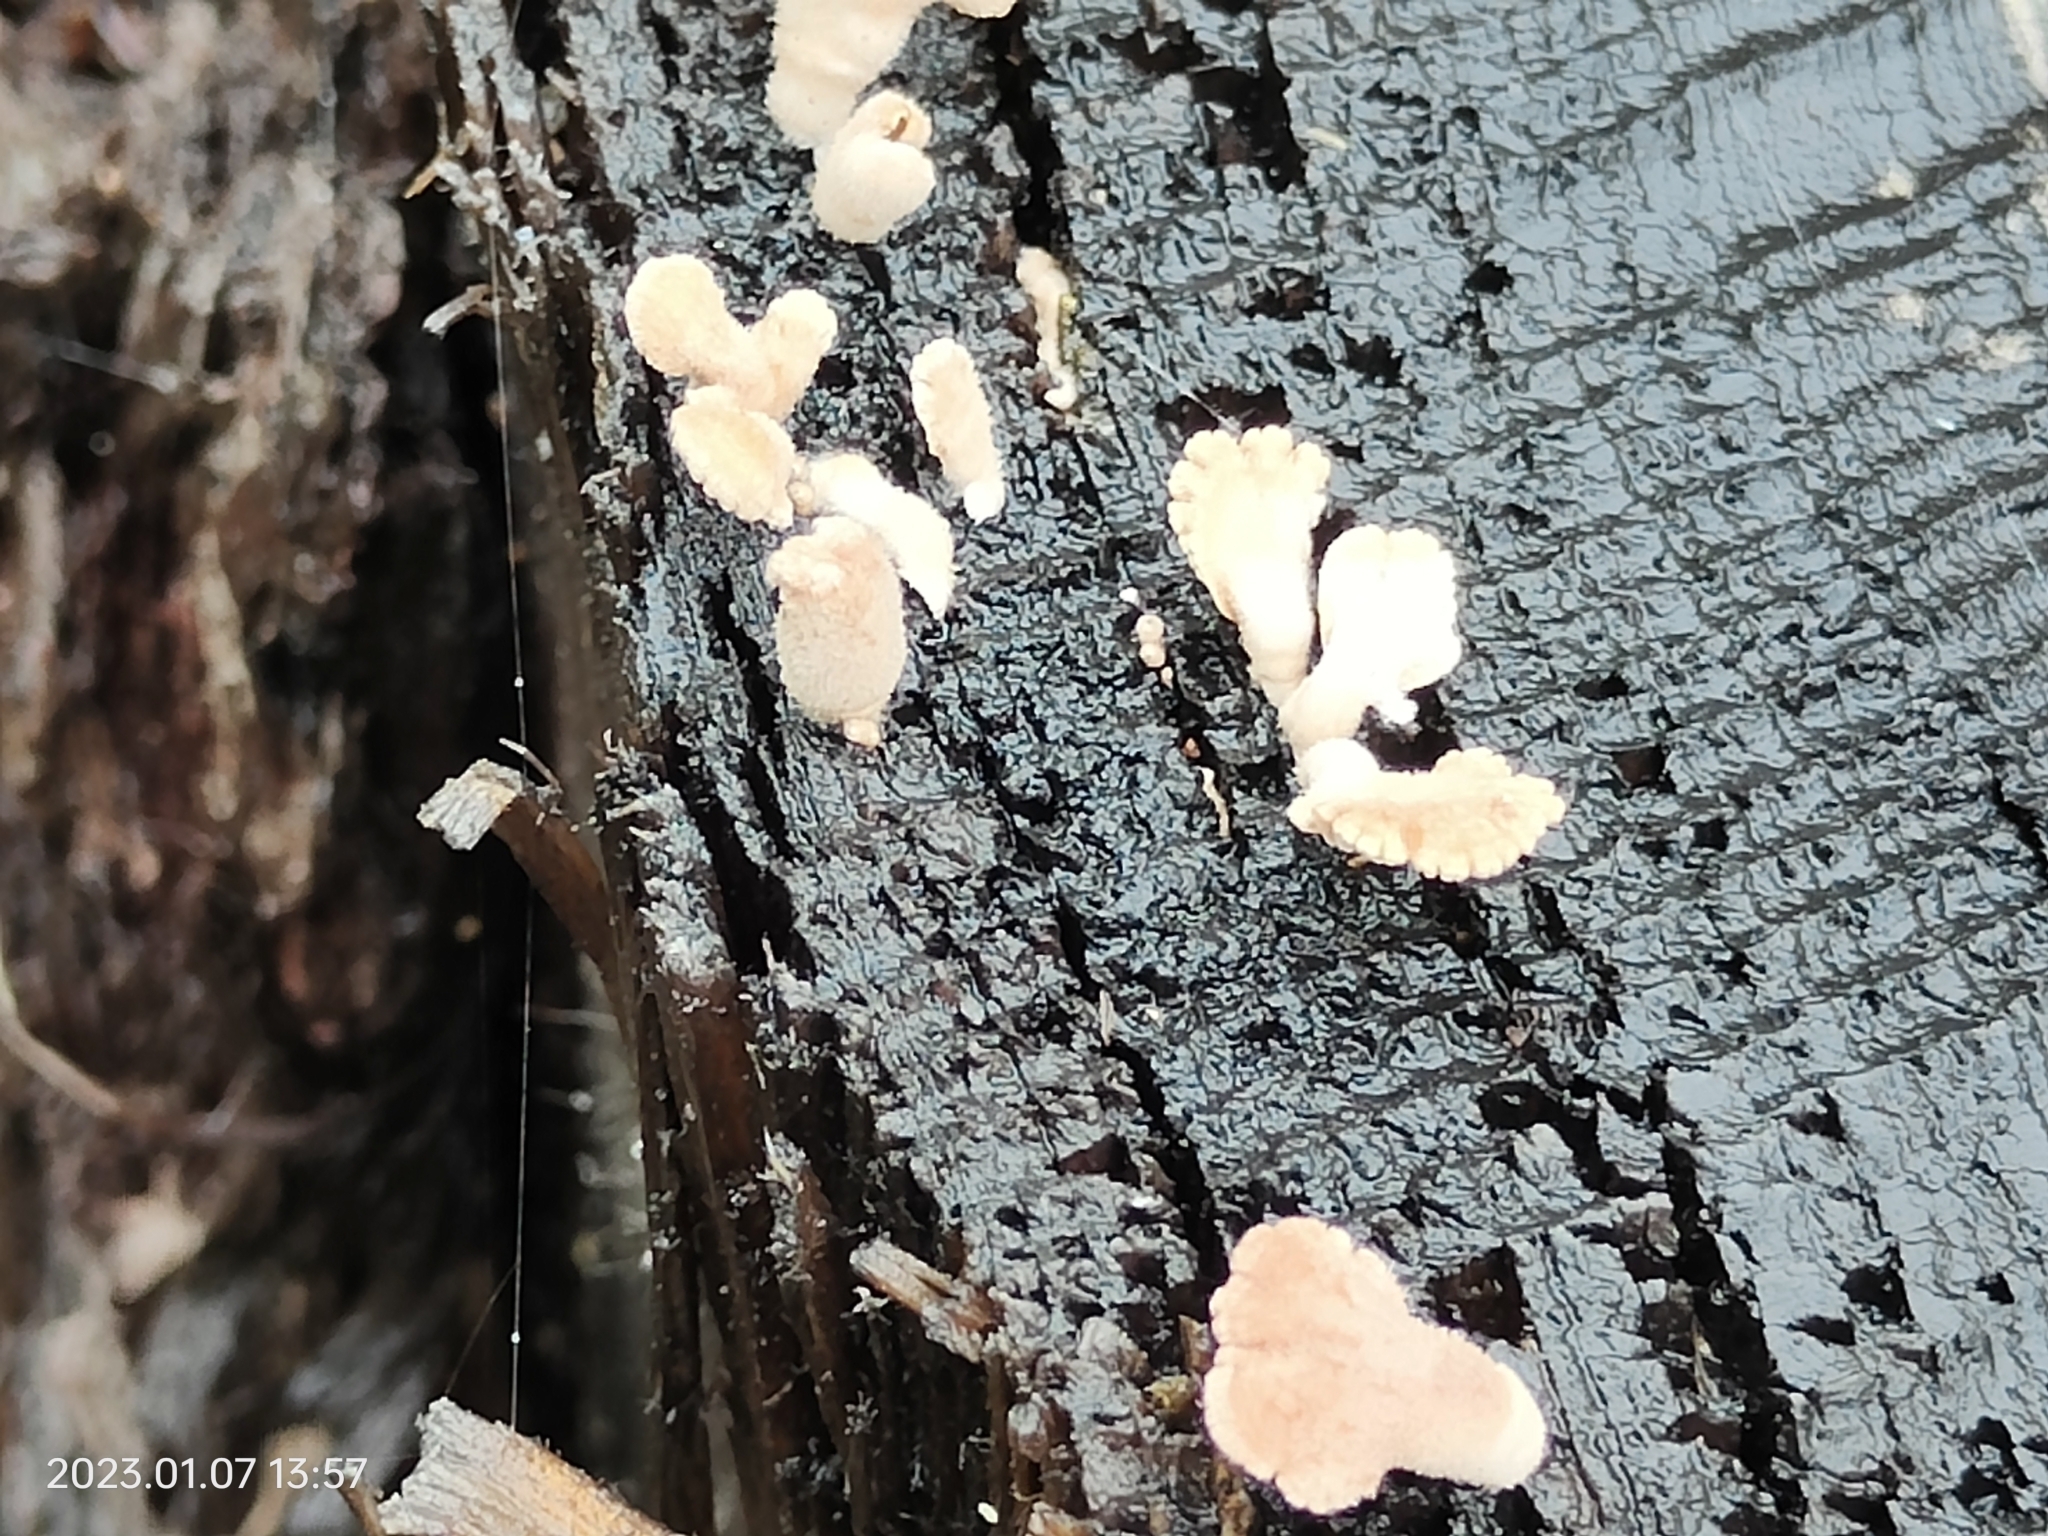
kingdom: Fungi
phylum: Basidiomycota
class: Agaricomycetes
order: Agaricales
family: Schizophyllaceae
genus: Schizophyllum
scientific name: Schizophyllum commune
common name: Common porecrust
